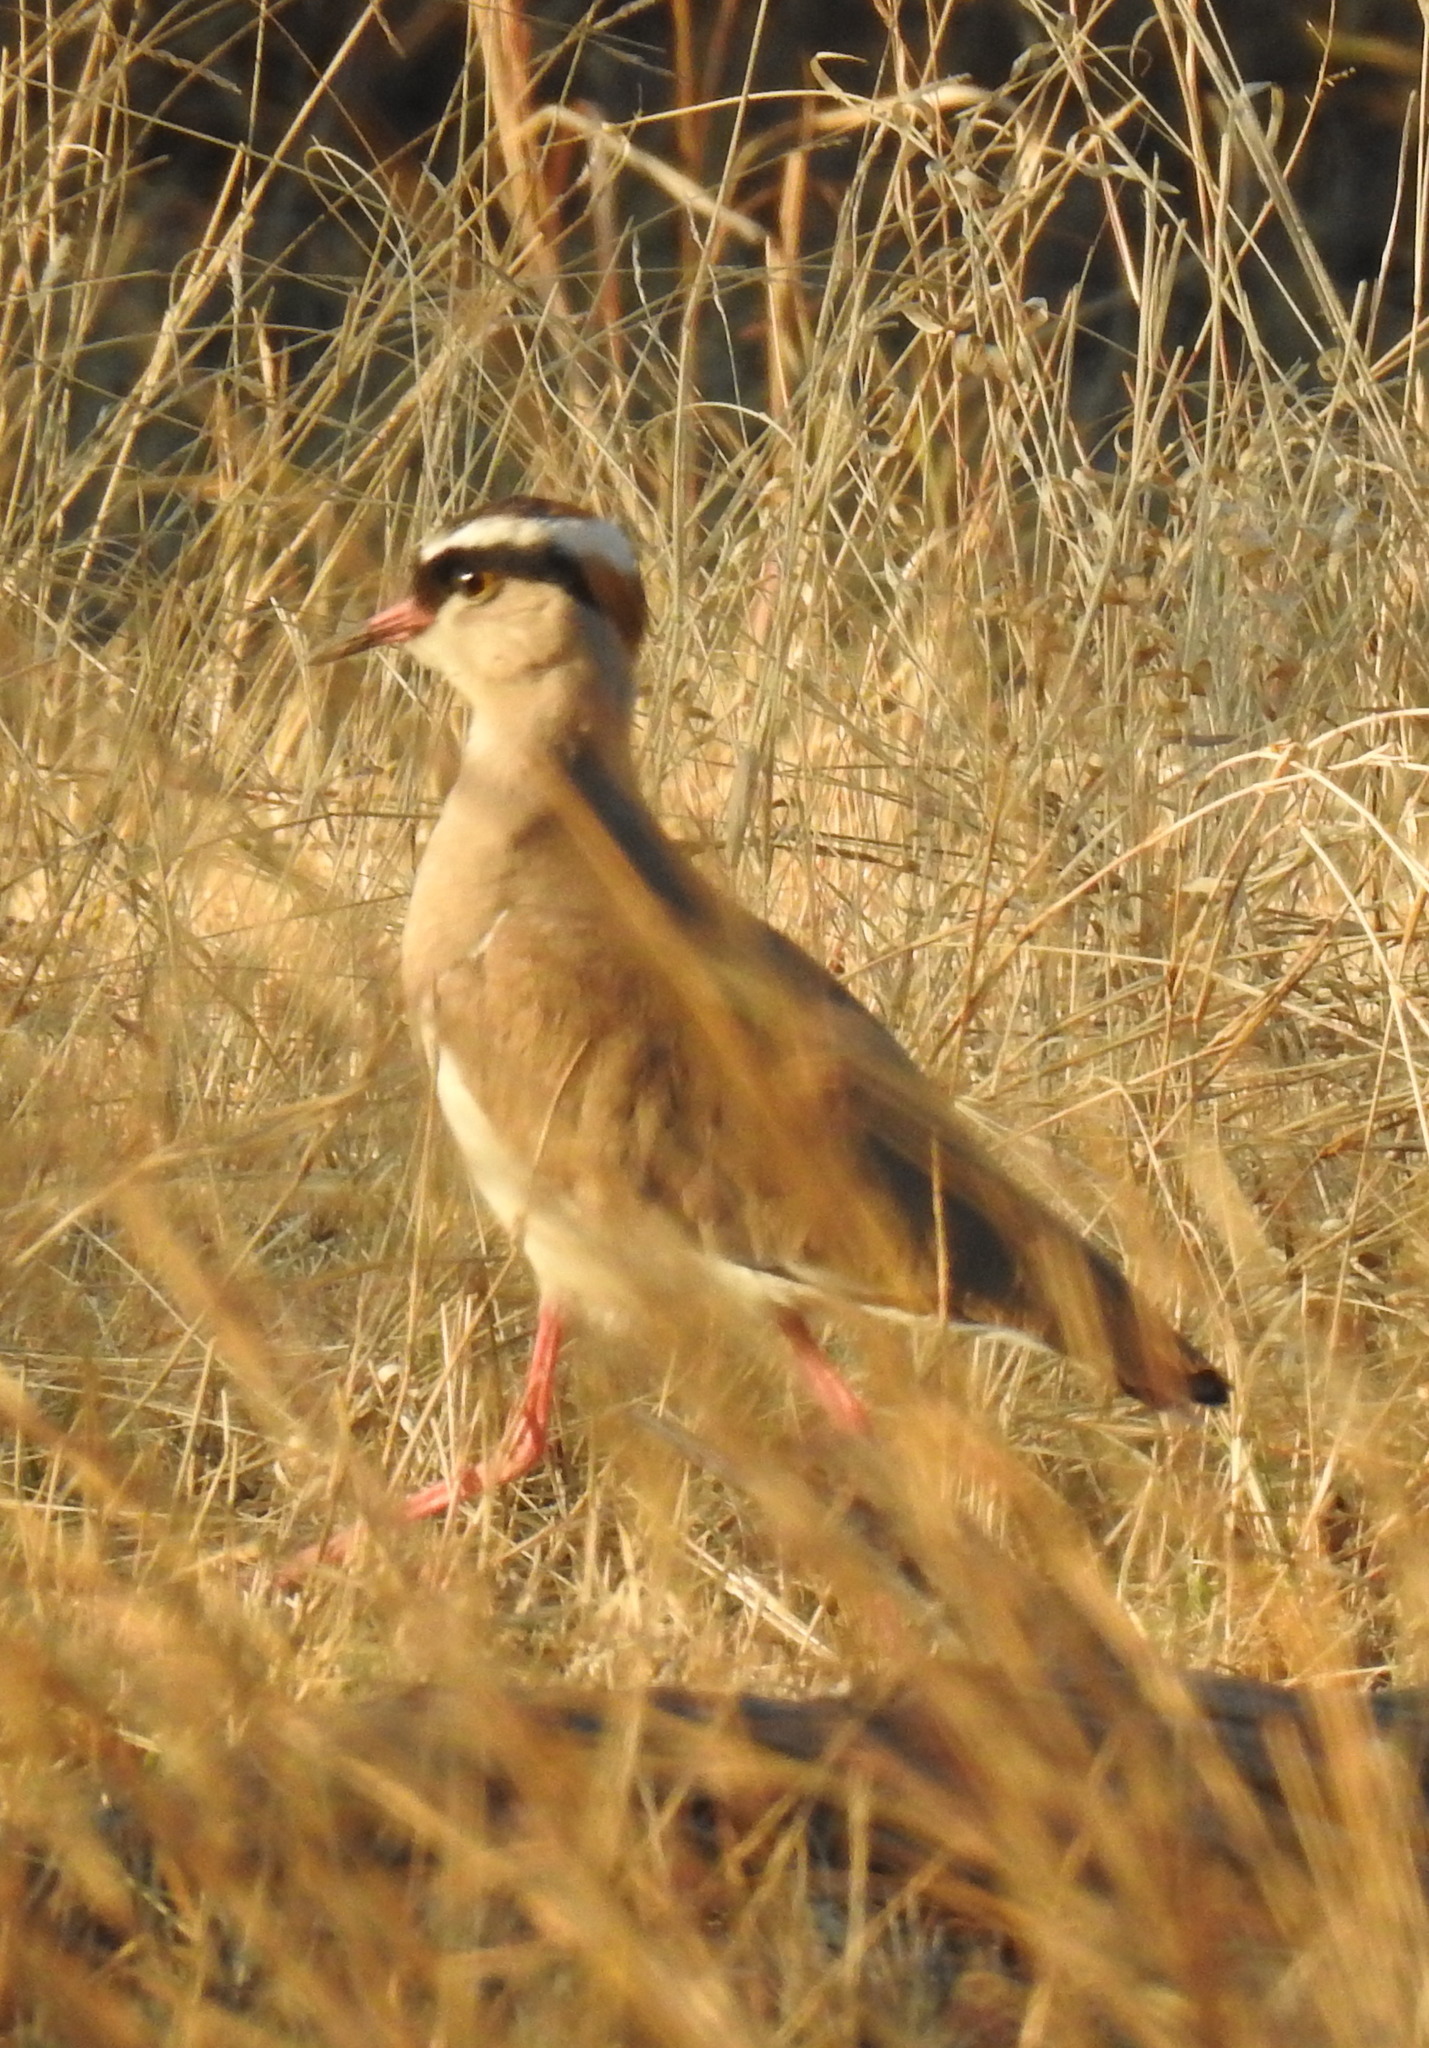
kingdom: Animalia
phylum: Chordata
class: Aves
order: Charadriiformes
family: Charadriidae
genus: Vanellus
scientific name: Vanellus coronatus
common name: Crowned lapwing
